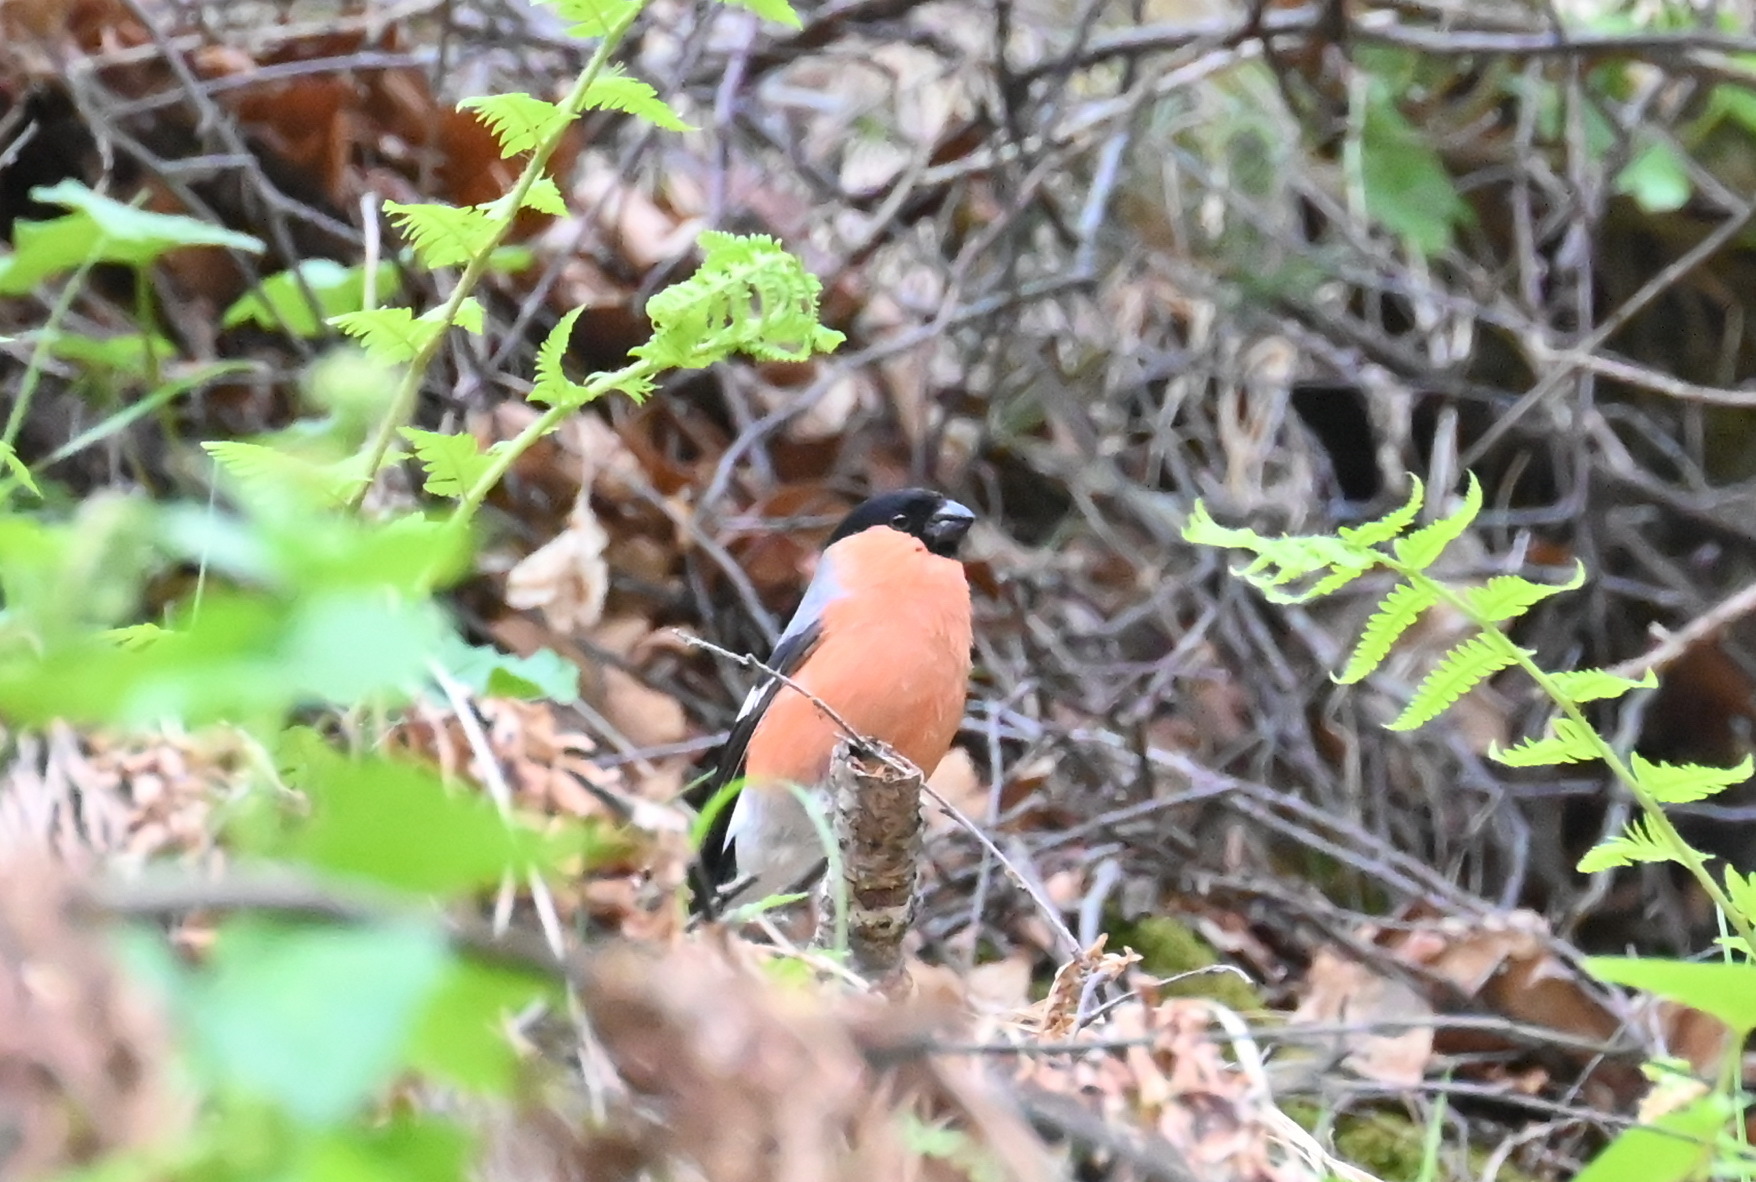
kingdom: Animalia
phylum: Chordata
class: Aves
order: Passeriformes
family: Fringillidae
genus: Pyrrhula
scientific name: Pyrrhula pyrrhula
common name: Eurasian bullfinch
